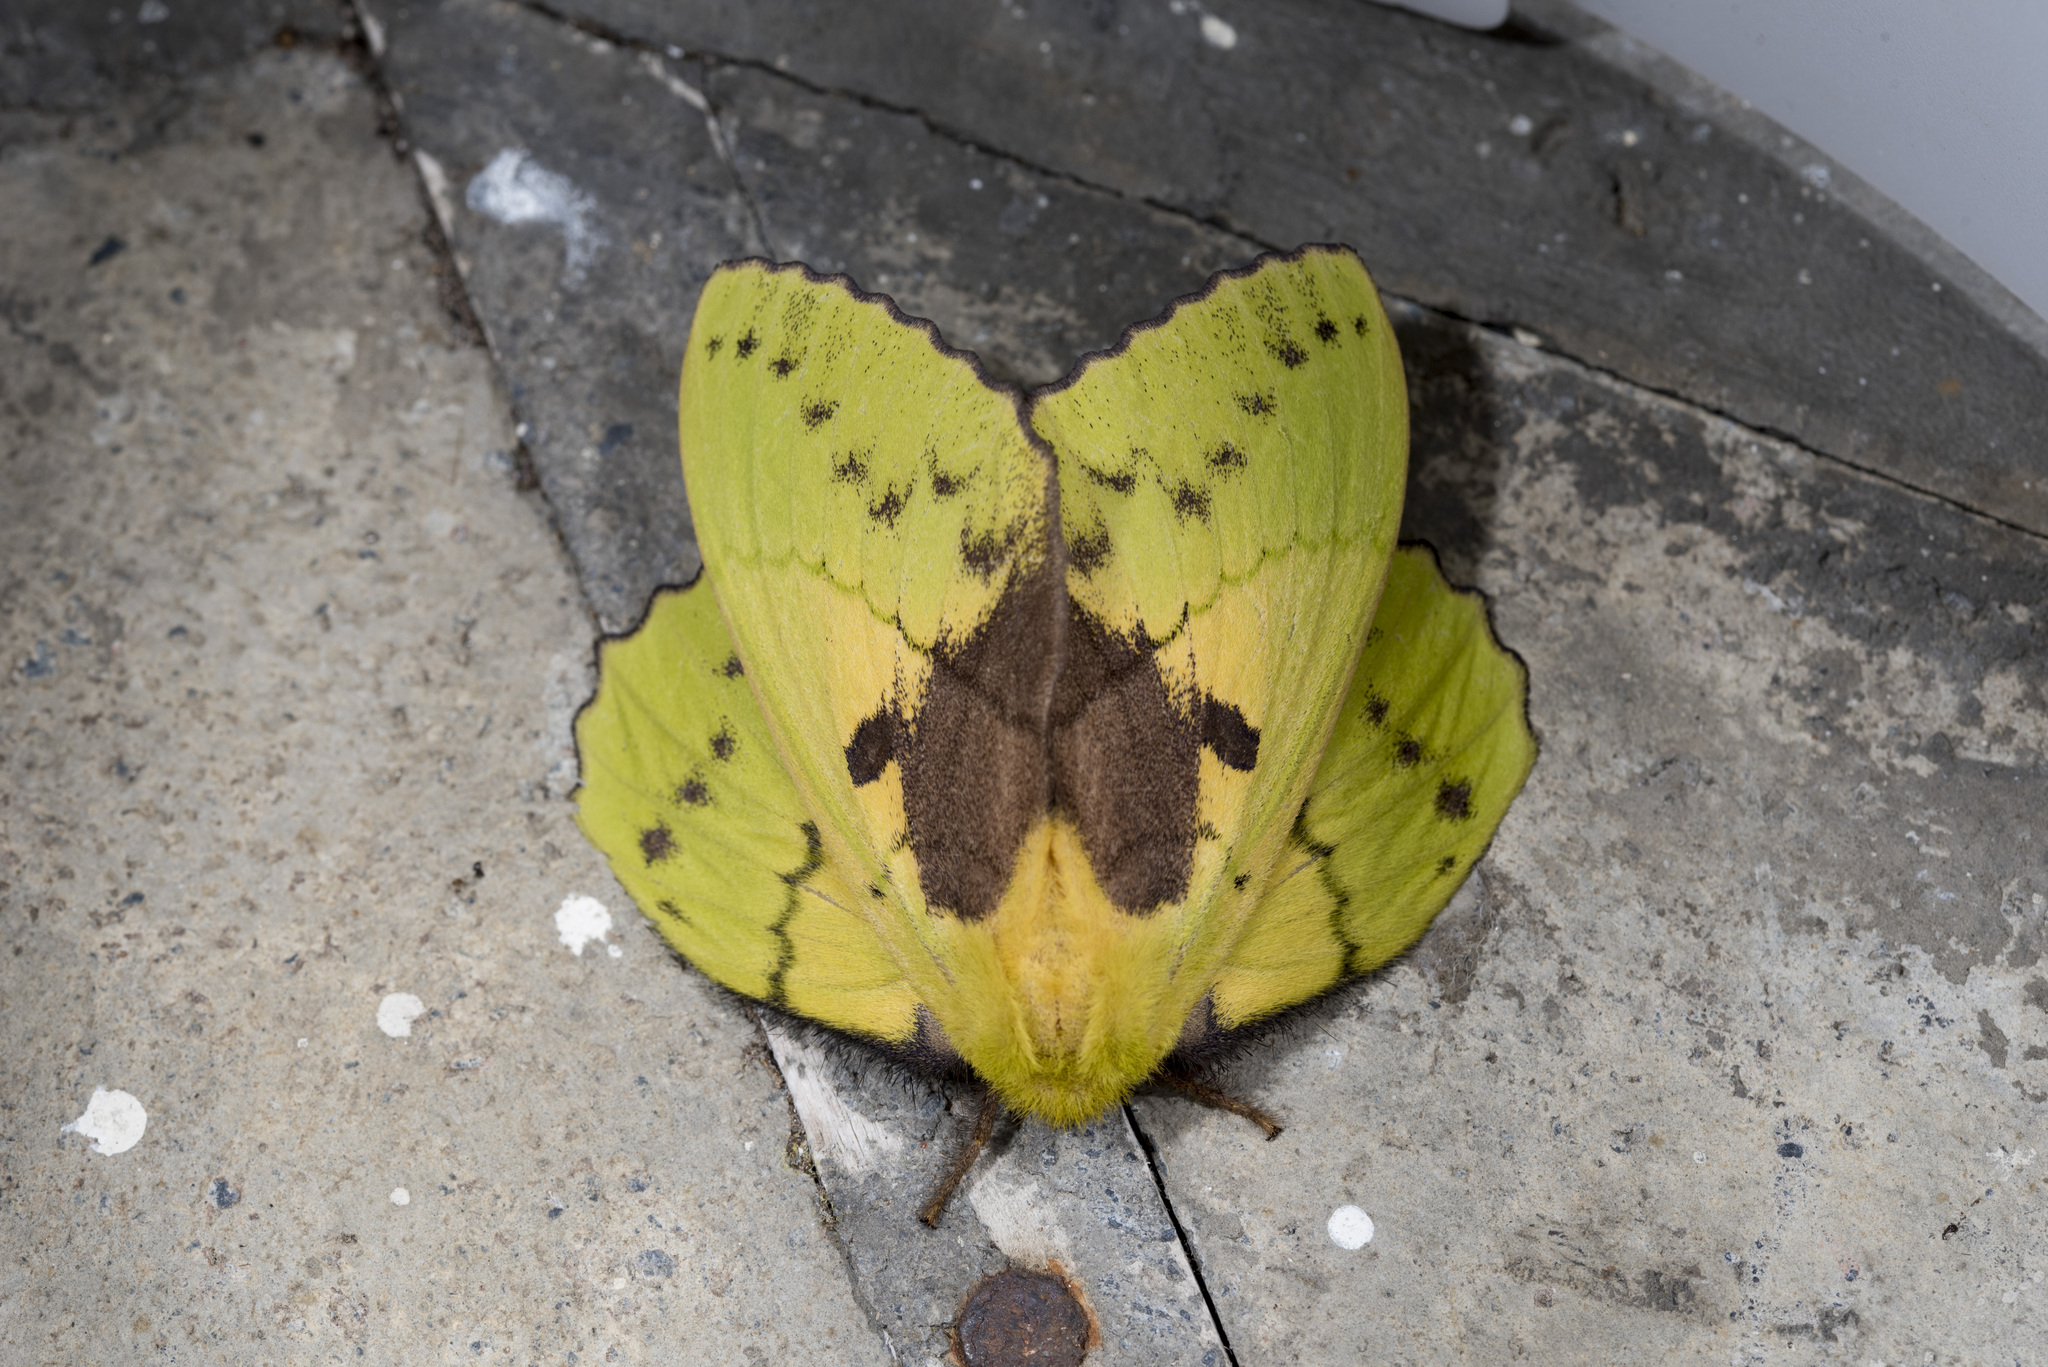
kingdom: Animalia
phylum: Arthropoda
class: Insecta
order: Lepidoptera
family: Lasiocampidae
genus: Trabala
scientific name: Trabala vishnou
